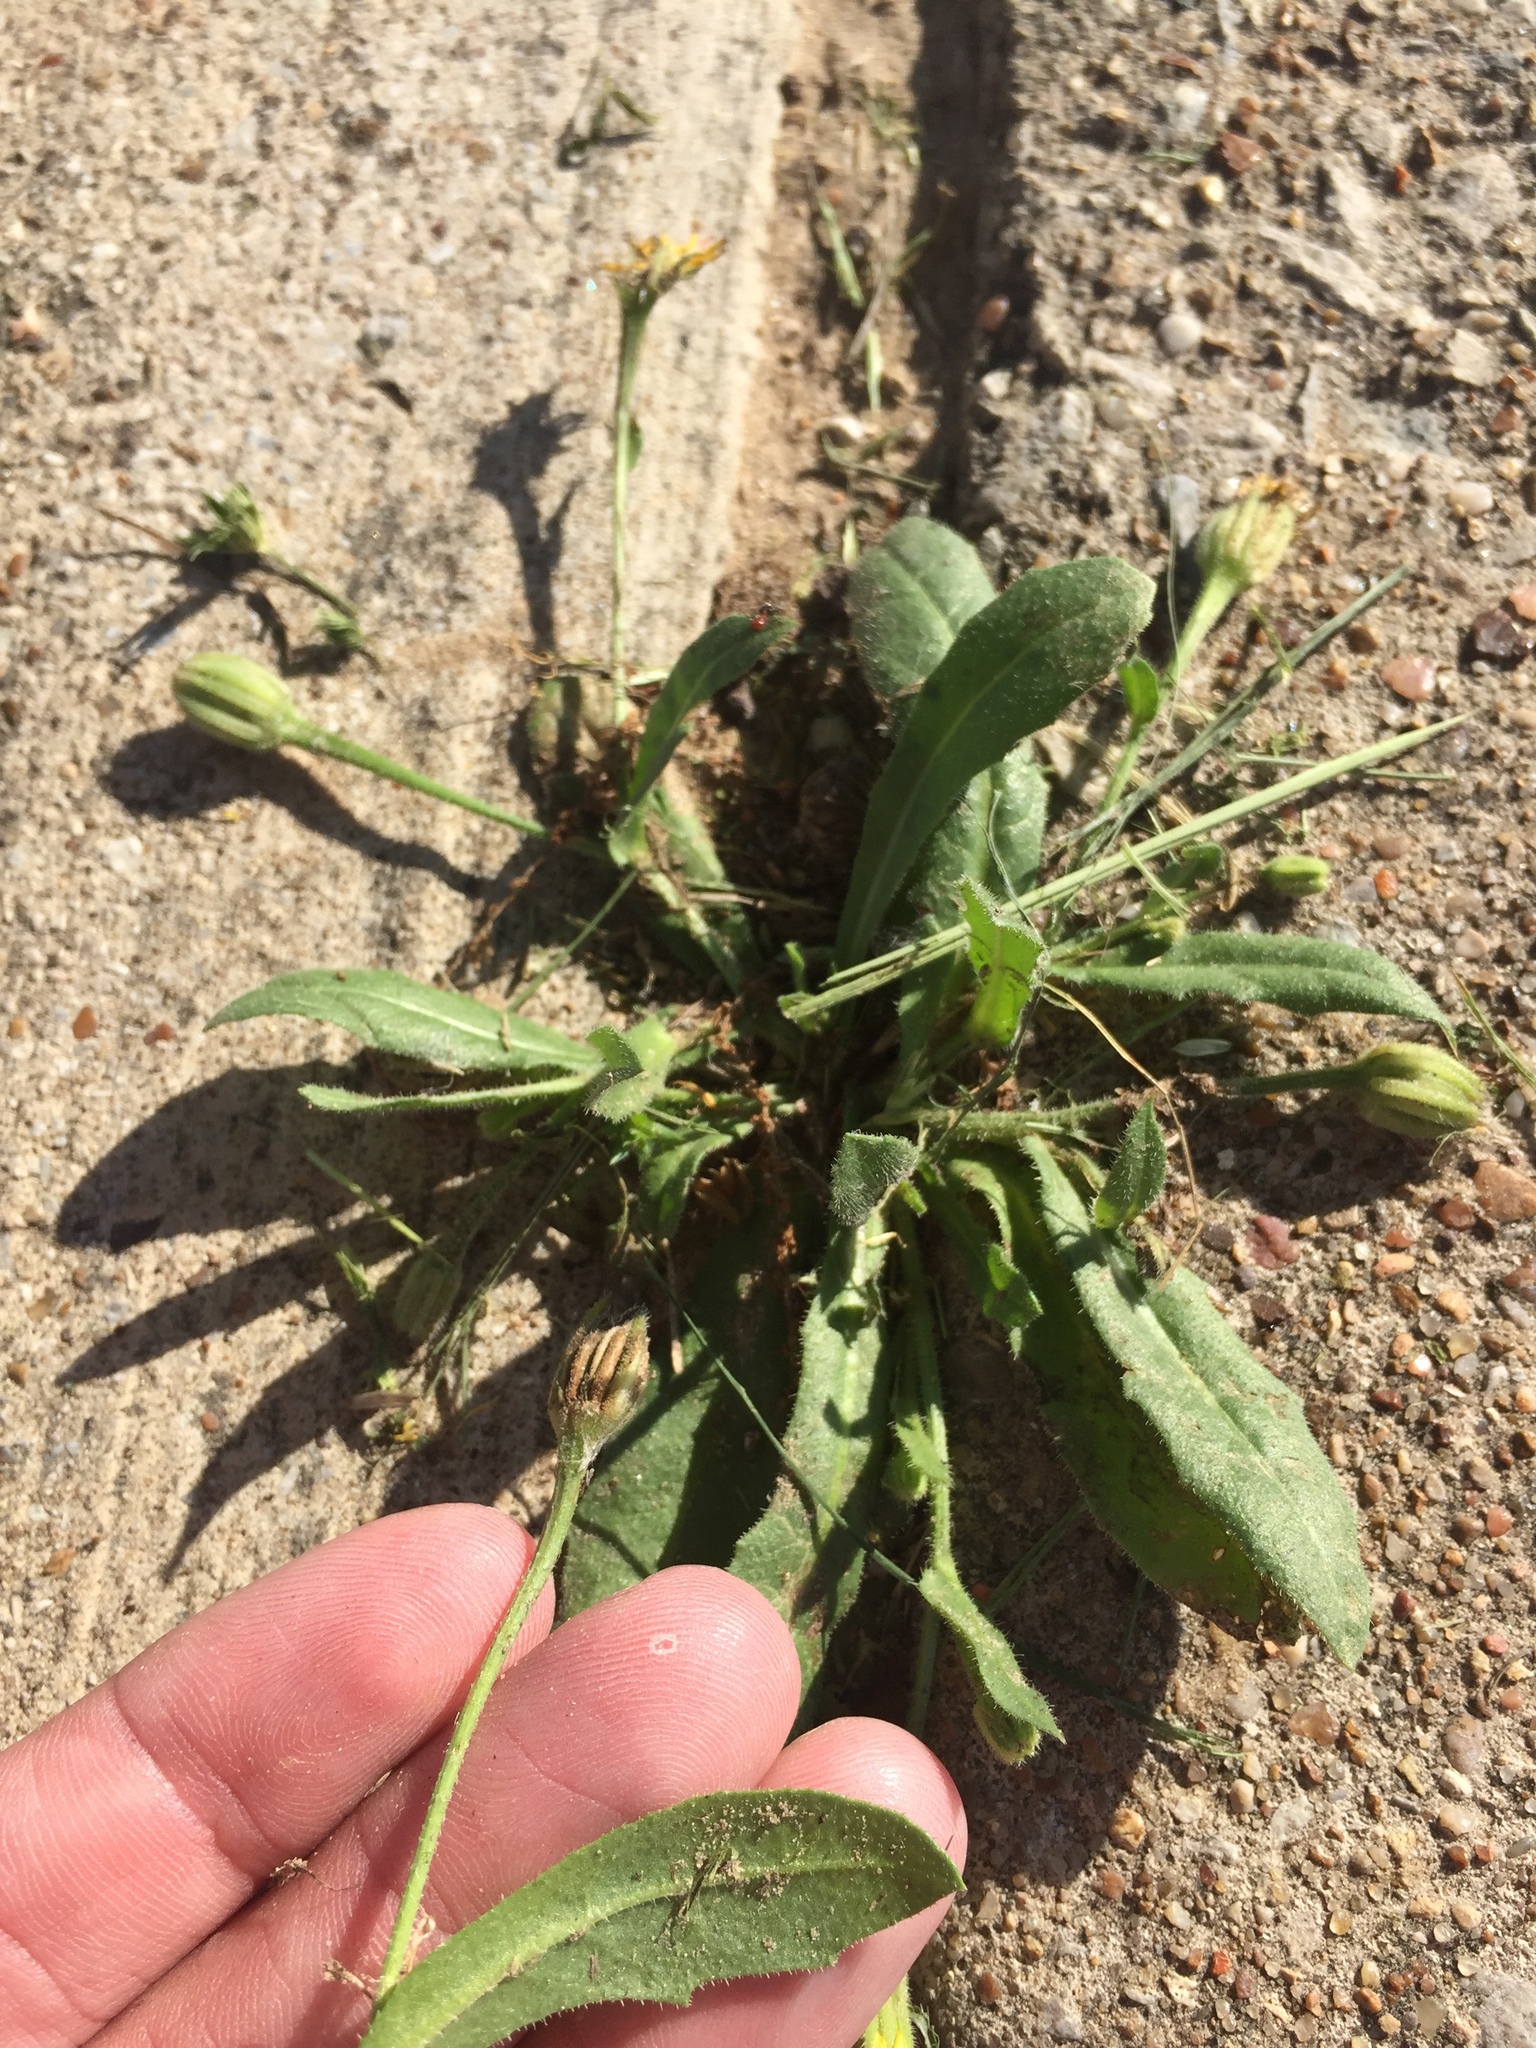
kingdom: Plantae
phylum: Tracheophyta
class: Magnoliopsida
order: Asterales
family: Asteraceae
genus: Hedypnois
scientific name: Hedypnois rhagadioloides
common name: Cretan weed
